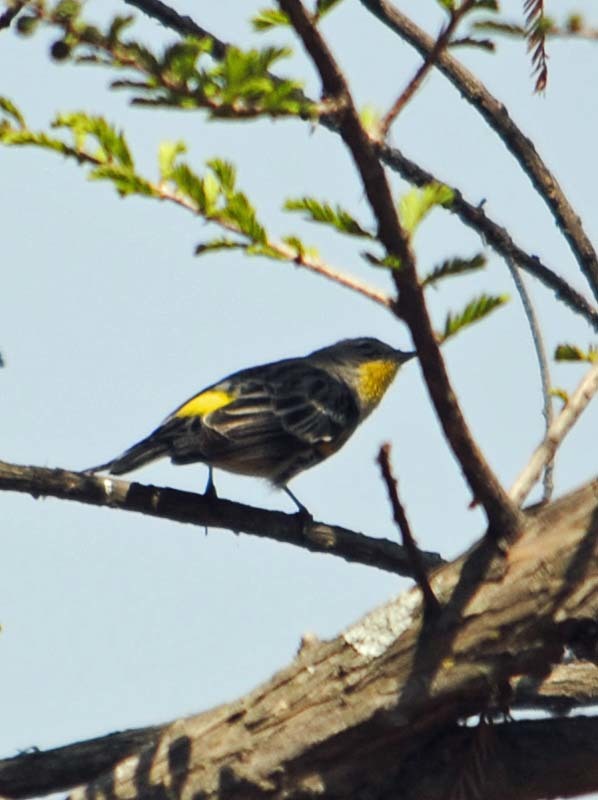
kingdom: Animalia
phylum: Chordata
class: Aves
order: Passeriformes
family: Parulidae
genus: Setophaga
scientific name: Setophaga auduboni
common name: Audubon's warbler
